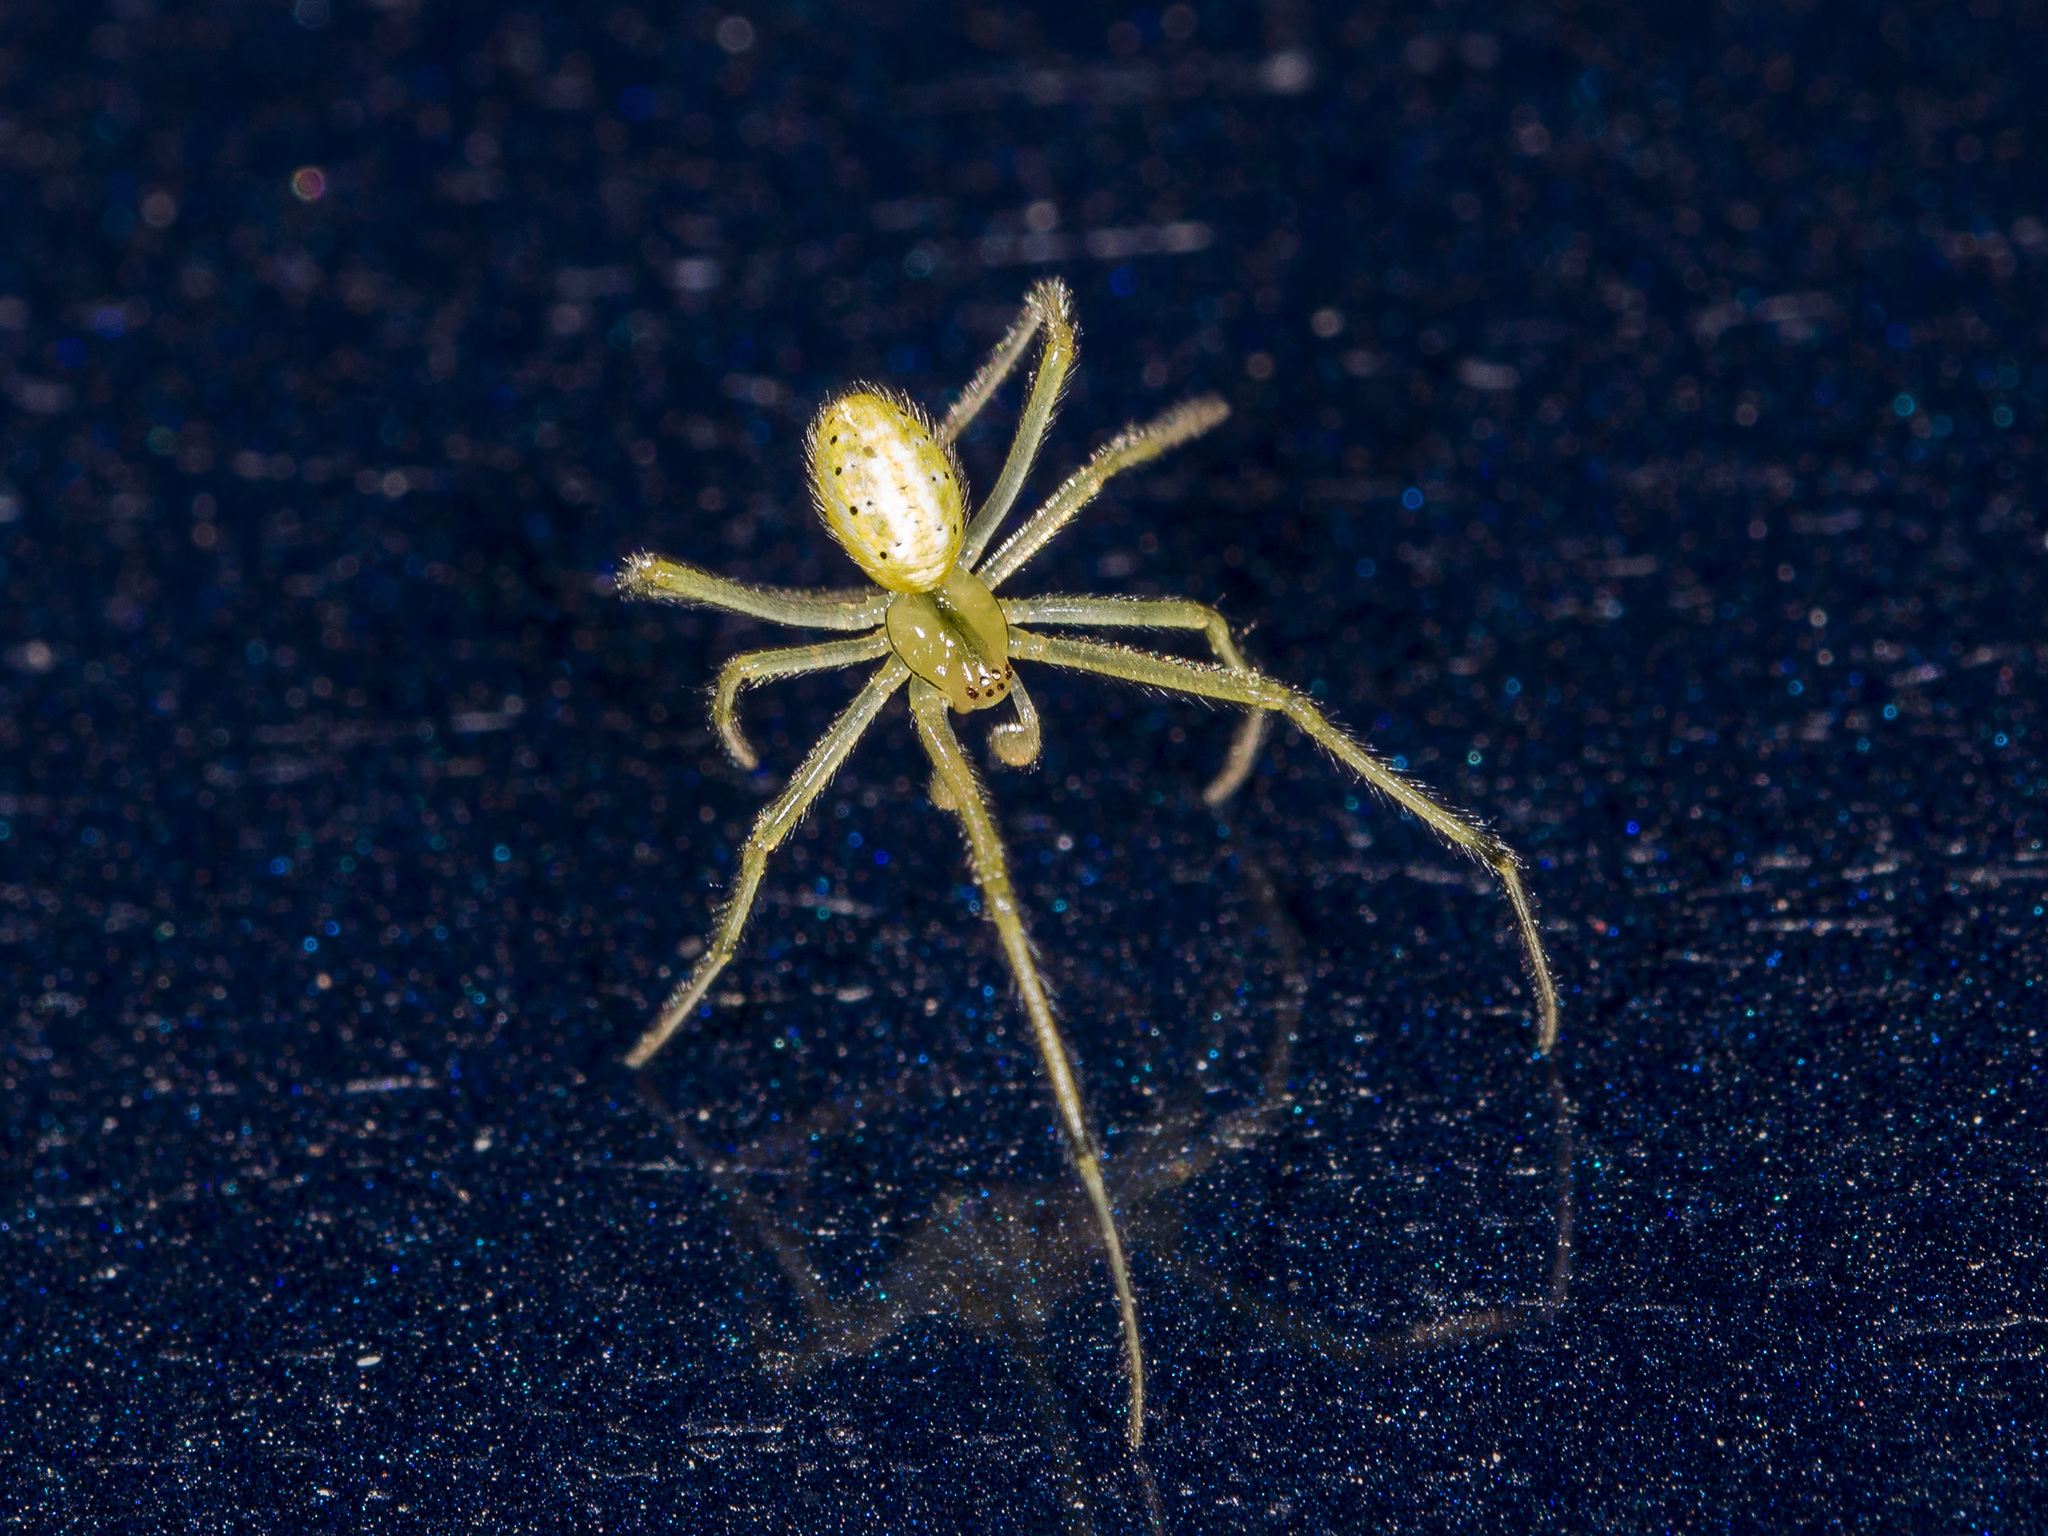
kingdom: Animalia
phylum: Arthropoda
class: Arachnida
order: Araneae
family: Theridiidae
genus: Enoplognatha
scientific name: Enoplognatha latimana
